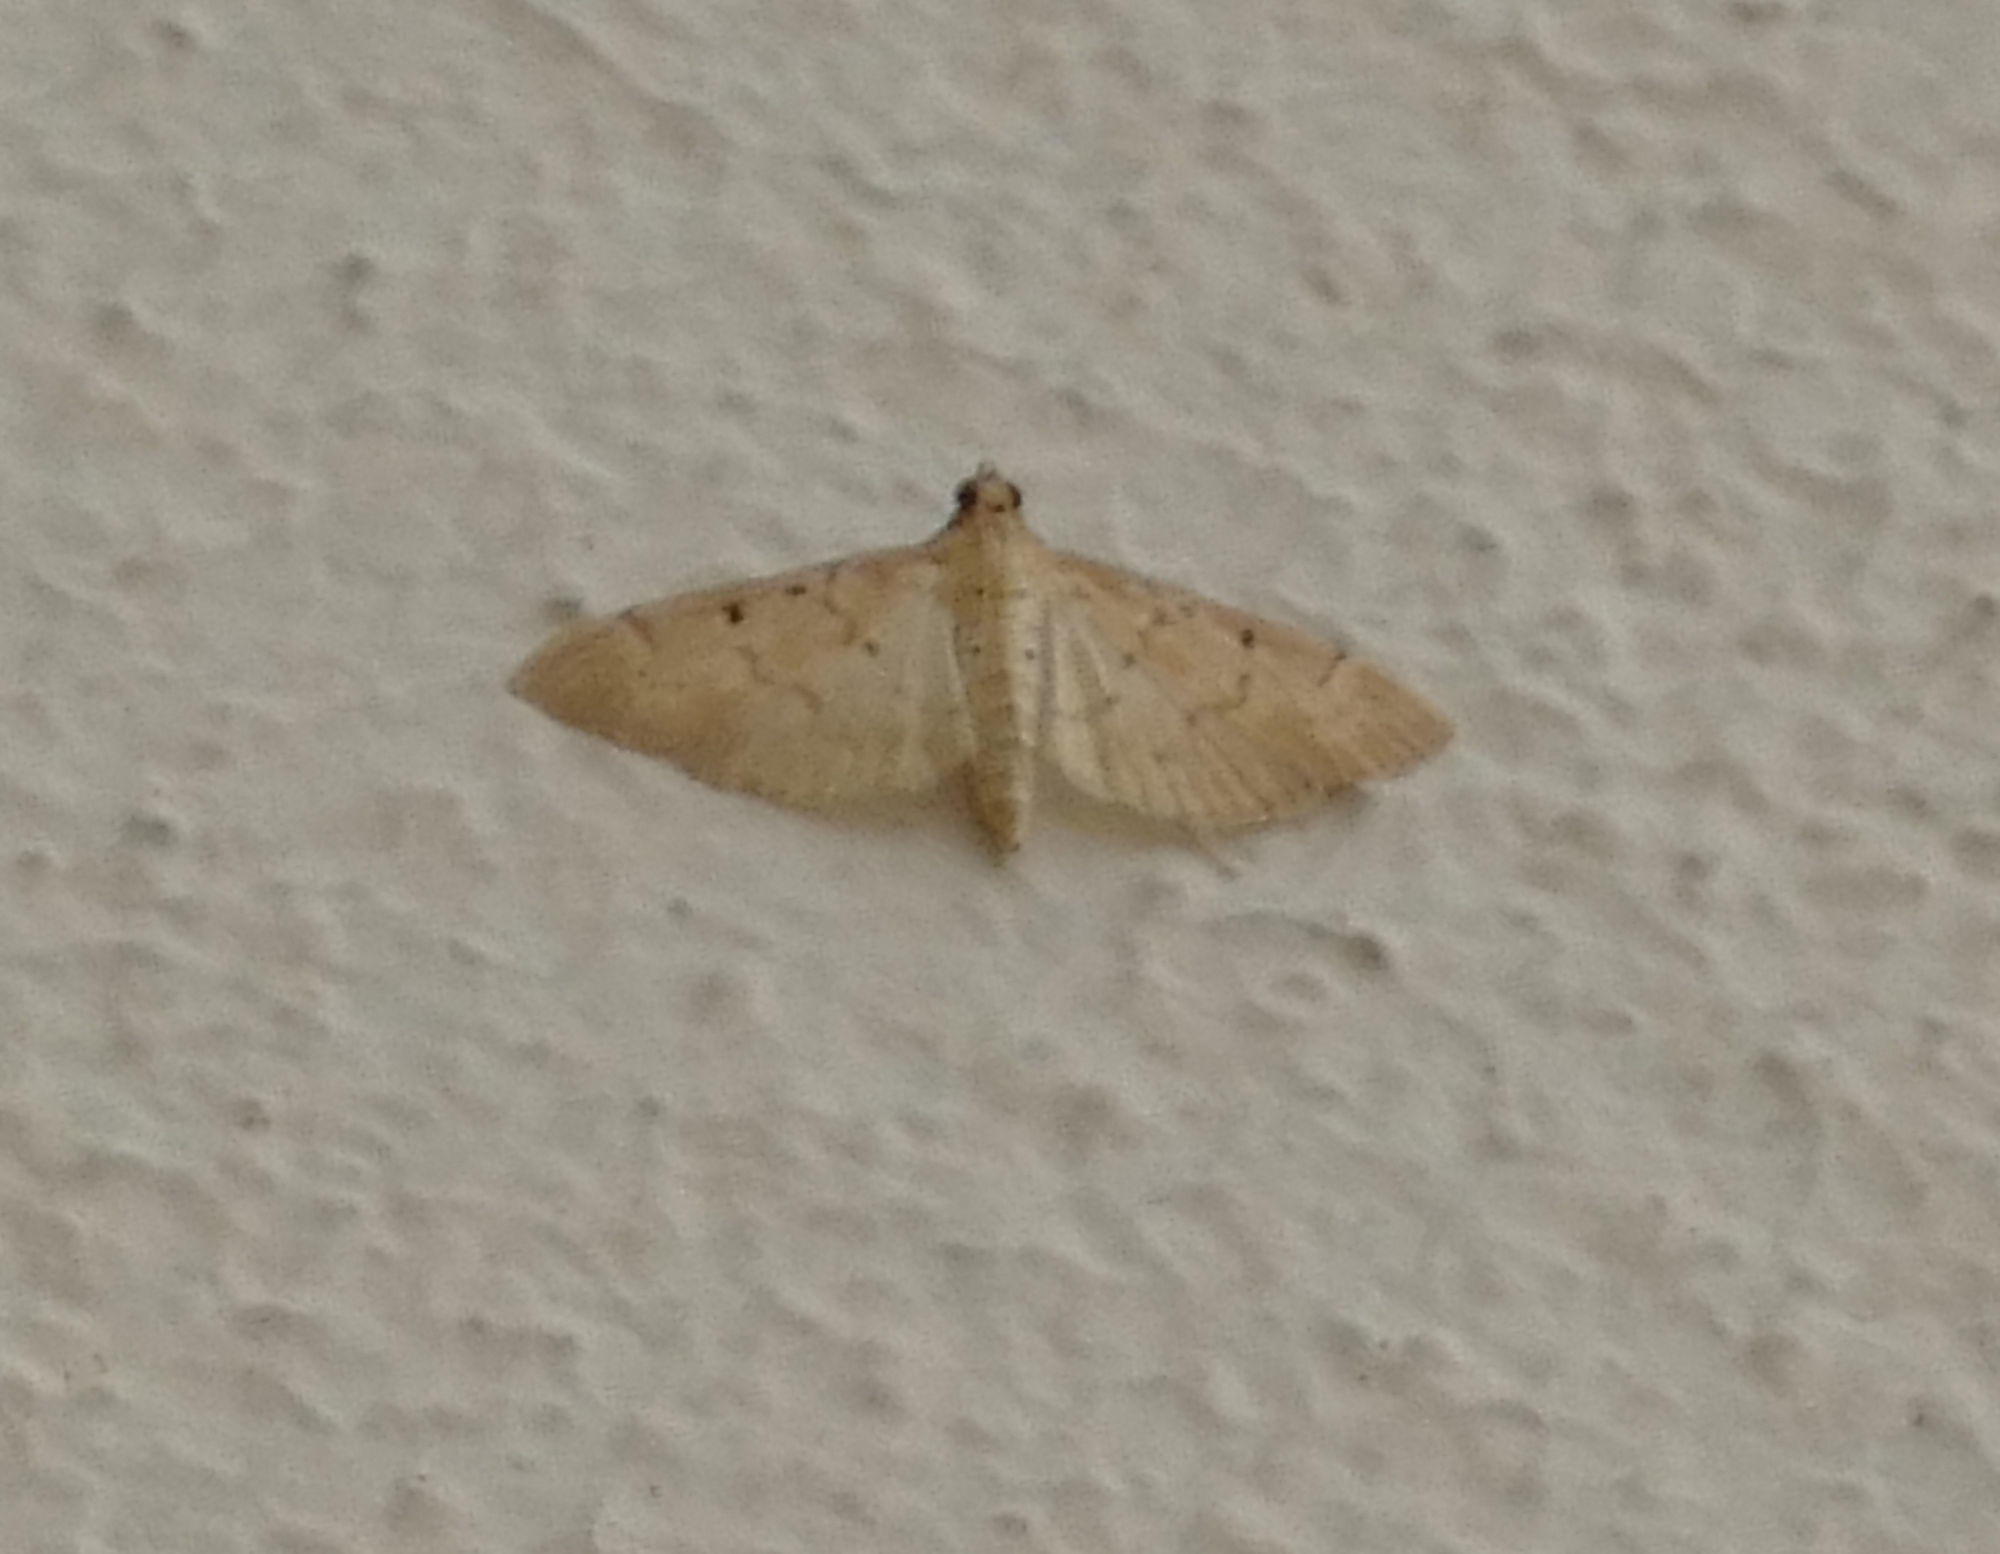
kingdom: Animalia
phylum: Arthropoda
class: Insecta
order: Lepidoptera
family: Crambidae
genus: Herpetogramma
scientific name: Herpetogramma bipunctalis
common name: Southern beet webworm
